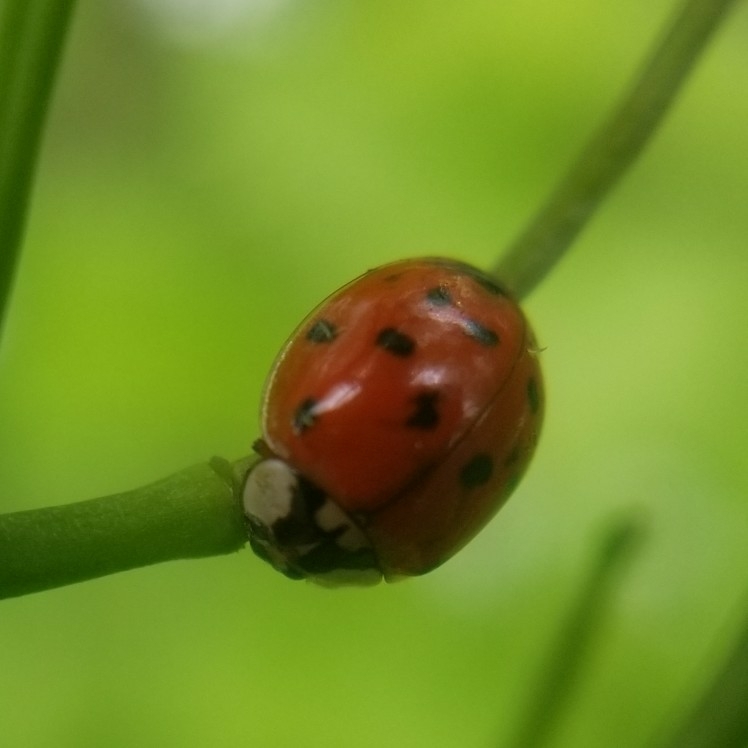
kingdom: Animalia
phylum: Arthropoda
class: Insecta
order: Coleoptera
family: Coccinellidae
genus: Harmonia
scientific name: Harmonia axyridis
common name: Harlequin ladybird
